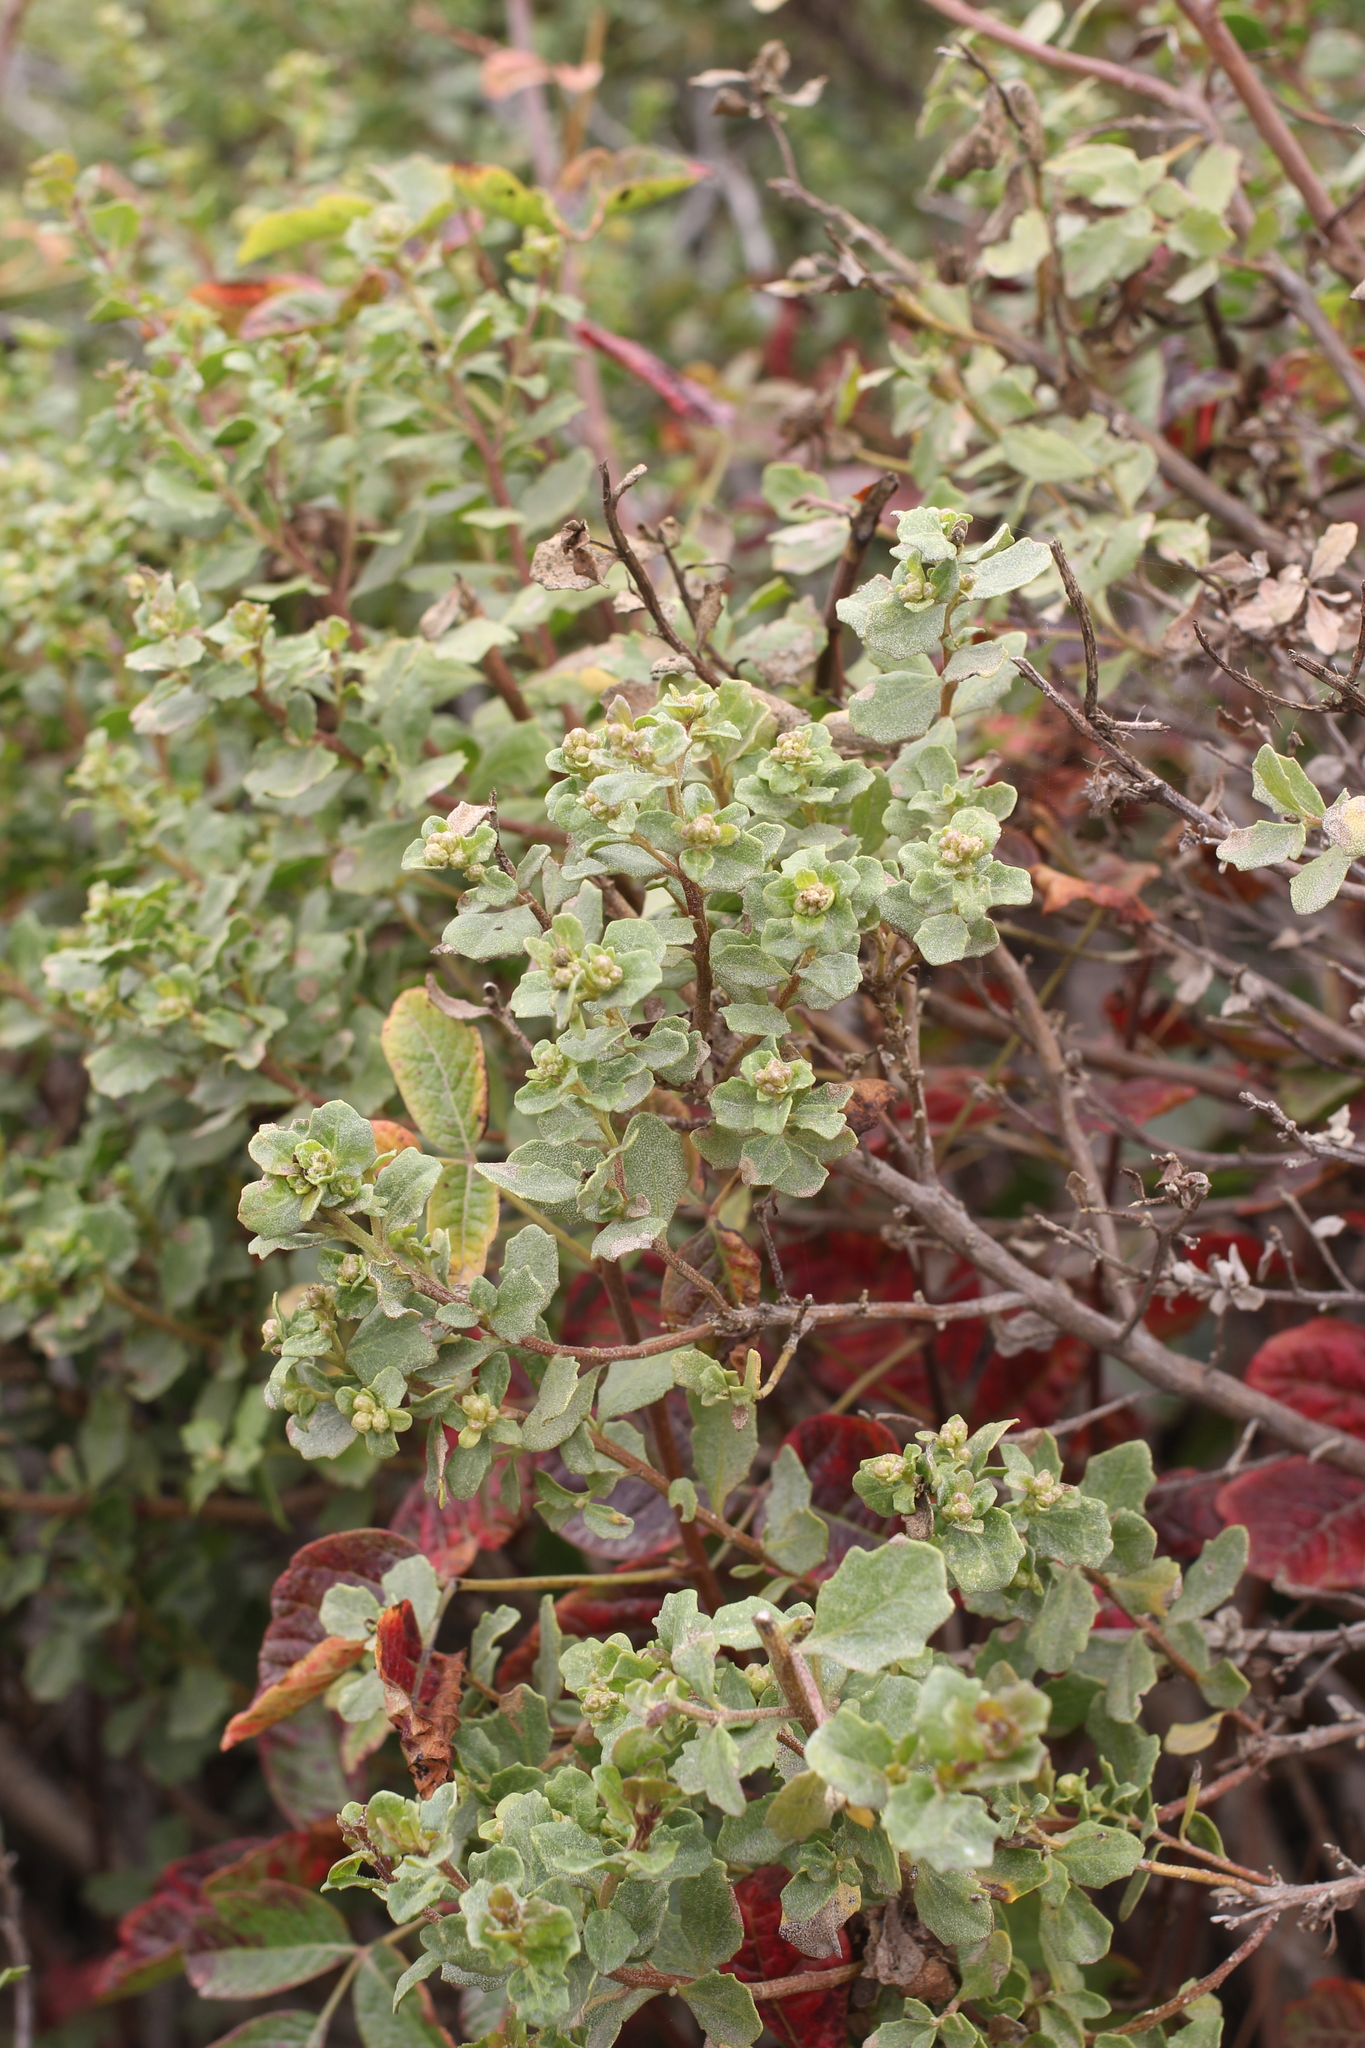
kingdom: Plantae
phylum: Tracheophyta
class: Magnoliopsida
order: Asterales
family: Asteraceae
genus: Baccharis
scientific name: Baccharis pilularis
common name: Coyotebrush
